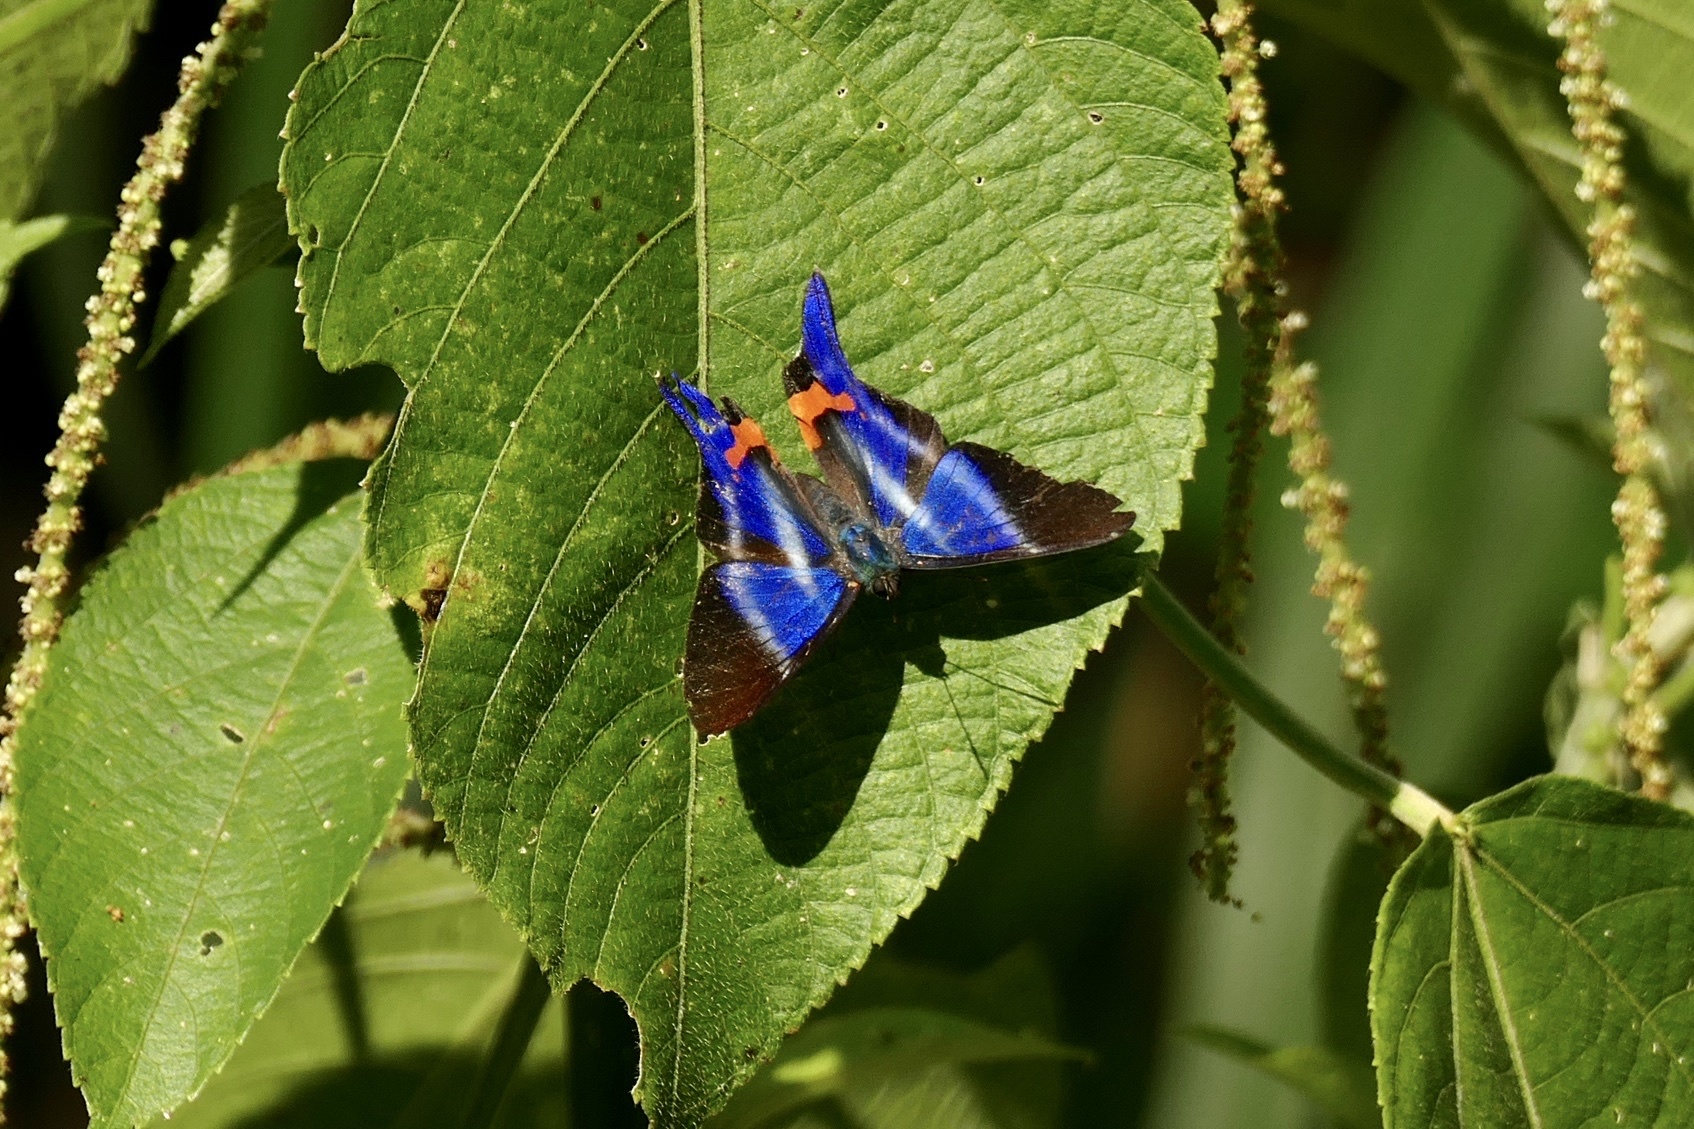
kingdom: Animalia
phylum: Arthropoda
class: Insecta
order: Lepidoptera
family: Riodinidae
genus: Rhetus
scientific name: Rhetus dysonii
